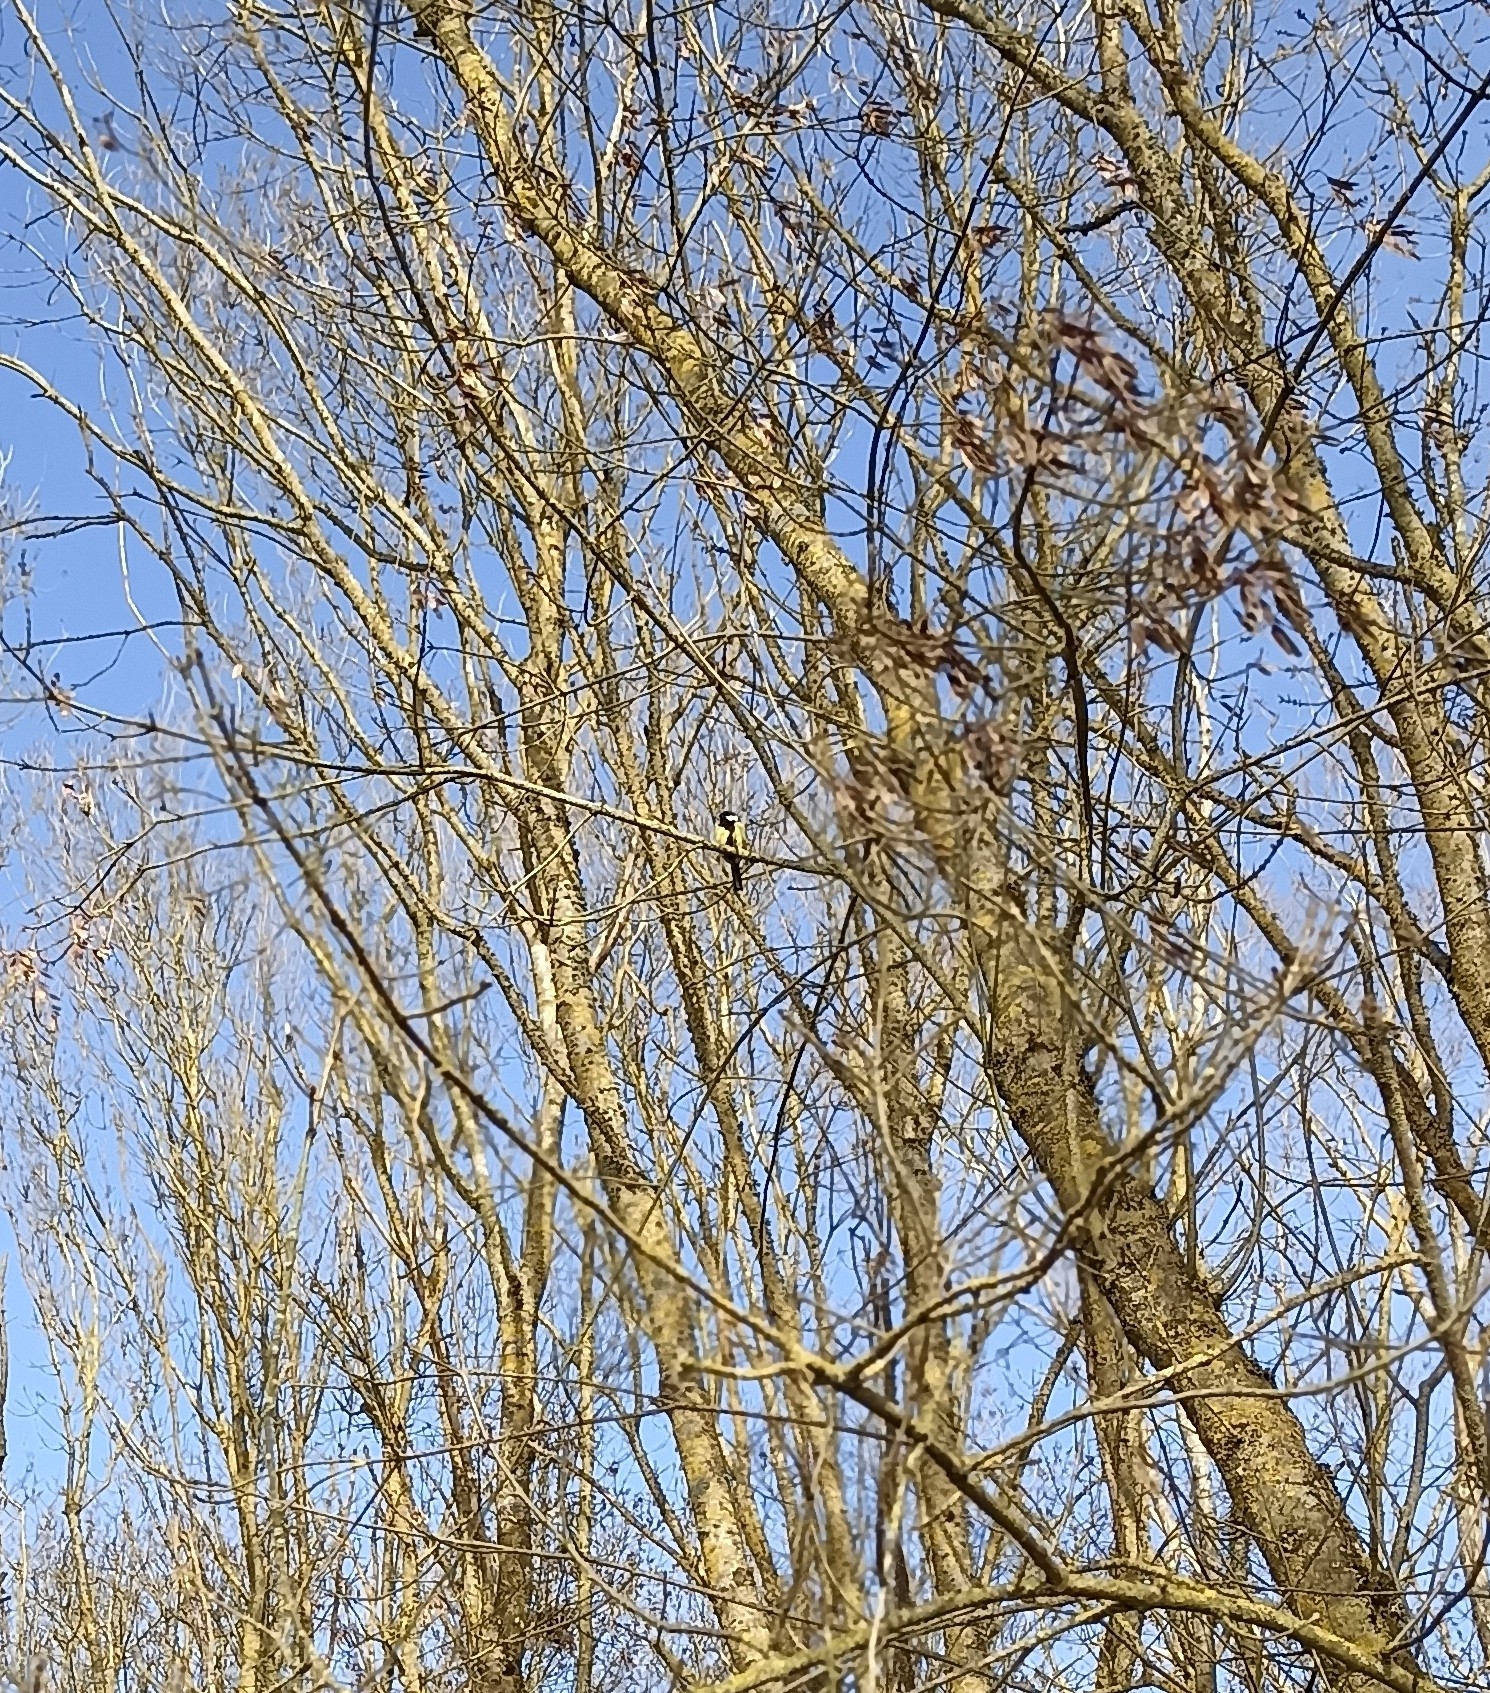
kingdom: Animalia
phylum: Chordata
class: Aves
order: Passeriformes
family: Paridae
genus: Parus
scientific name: Parus major
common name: Great tit
